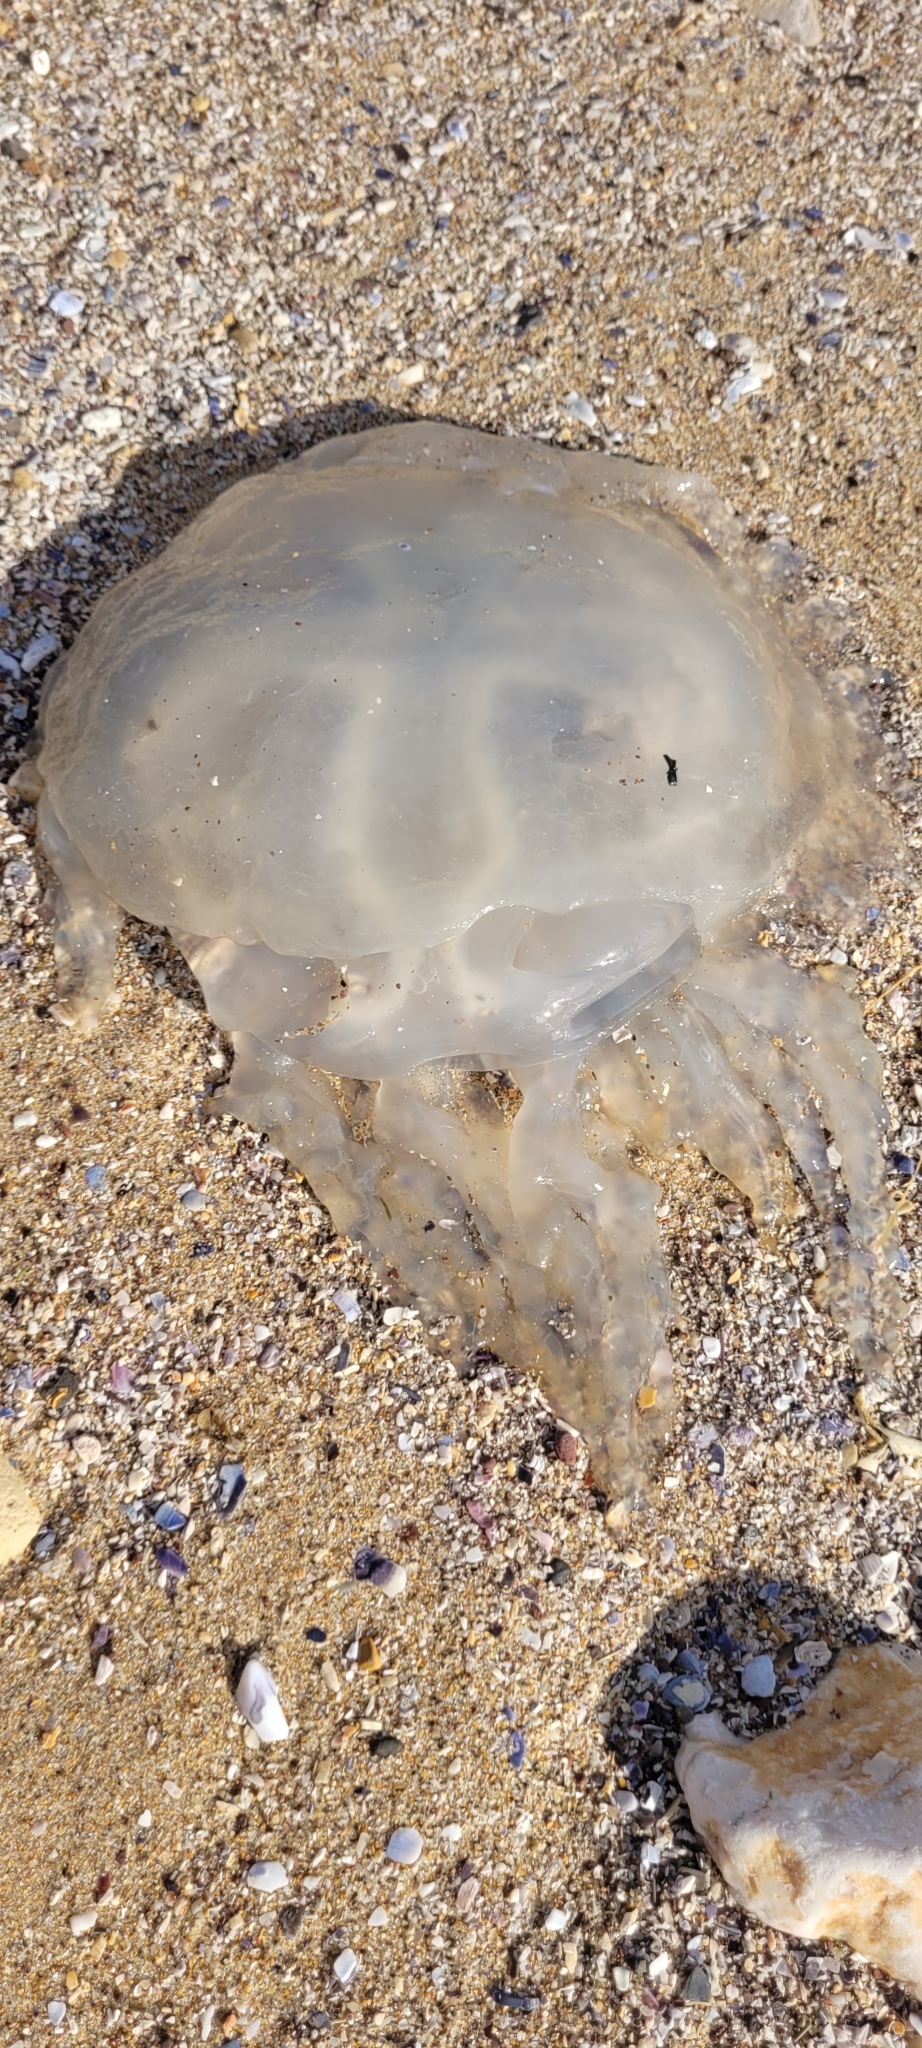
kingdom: Animalia
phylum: Cnidaria
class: Scyphozoa
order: Rhizostomeae
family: Catostylidae
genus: Catostylus
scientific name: Catostylus tagi
